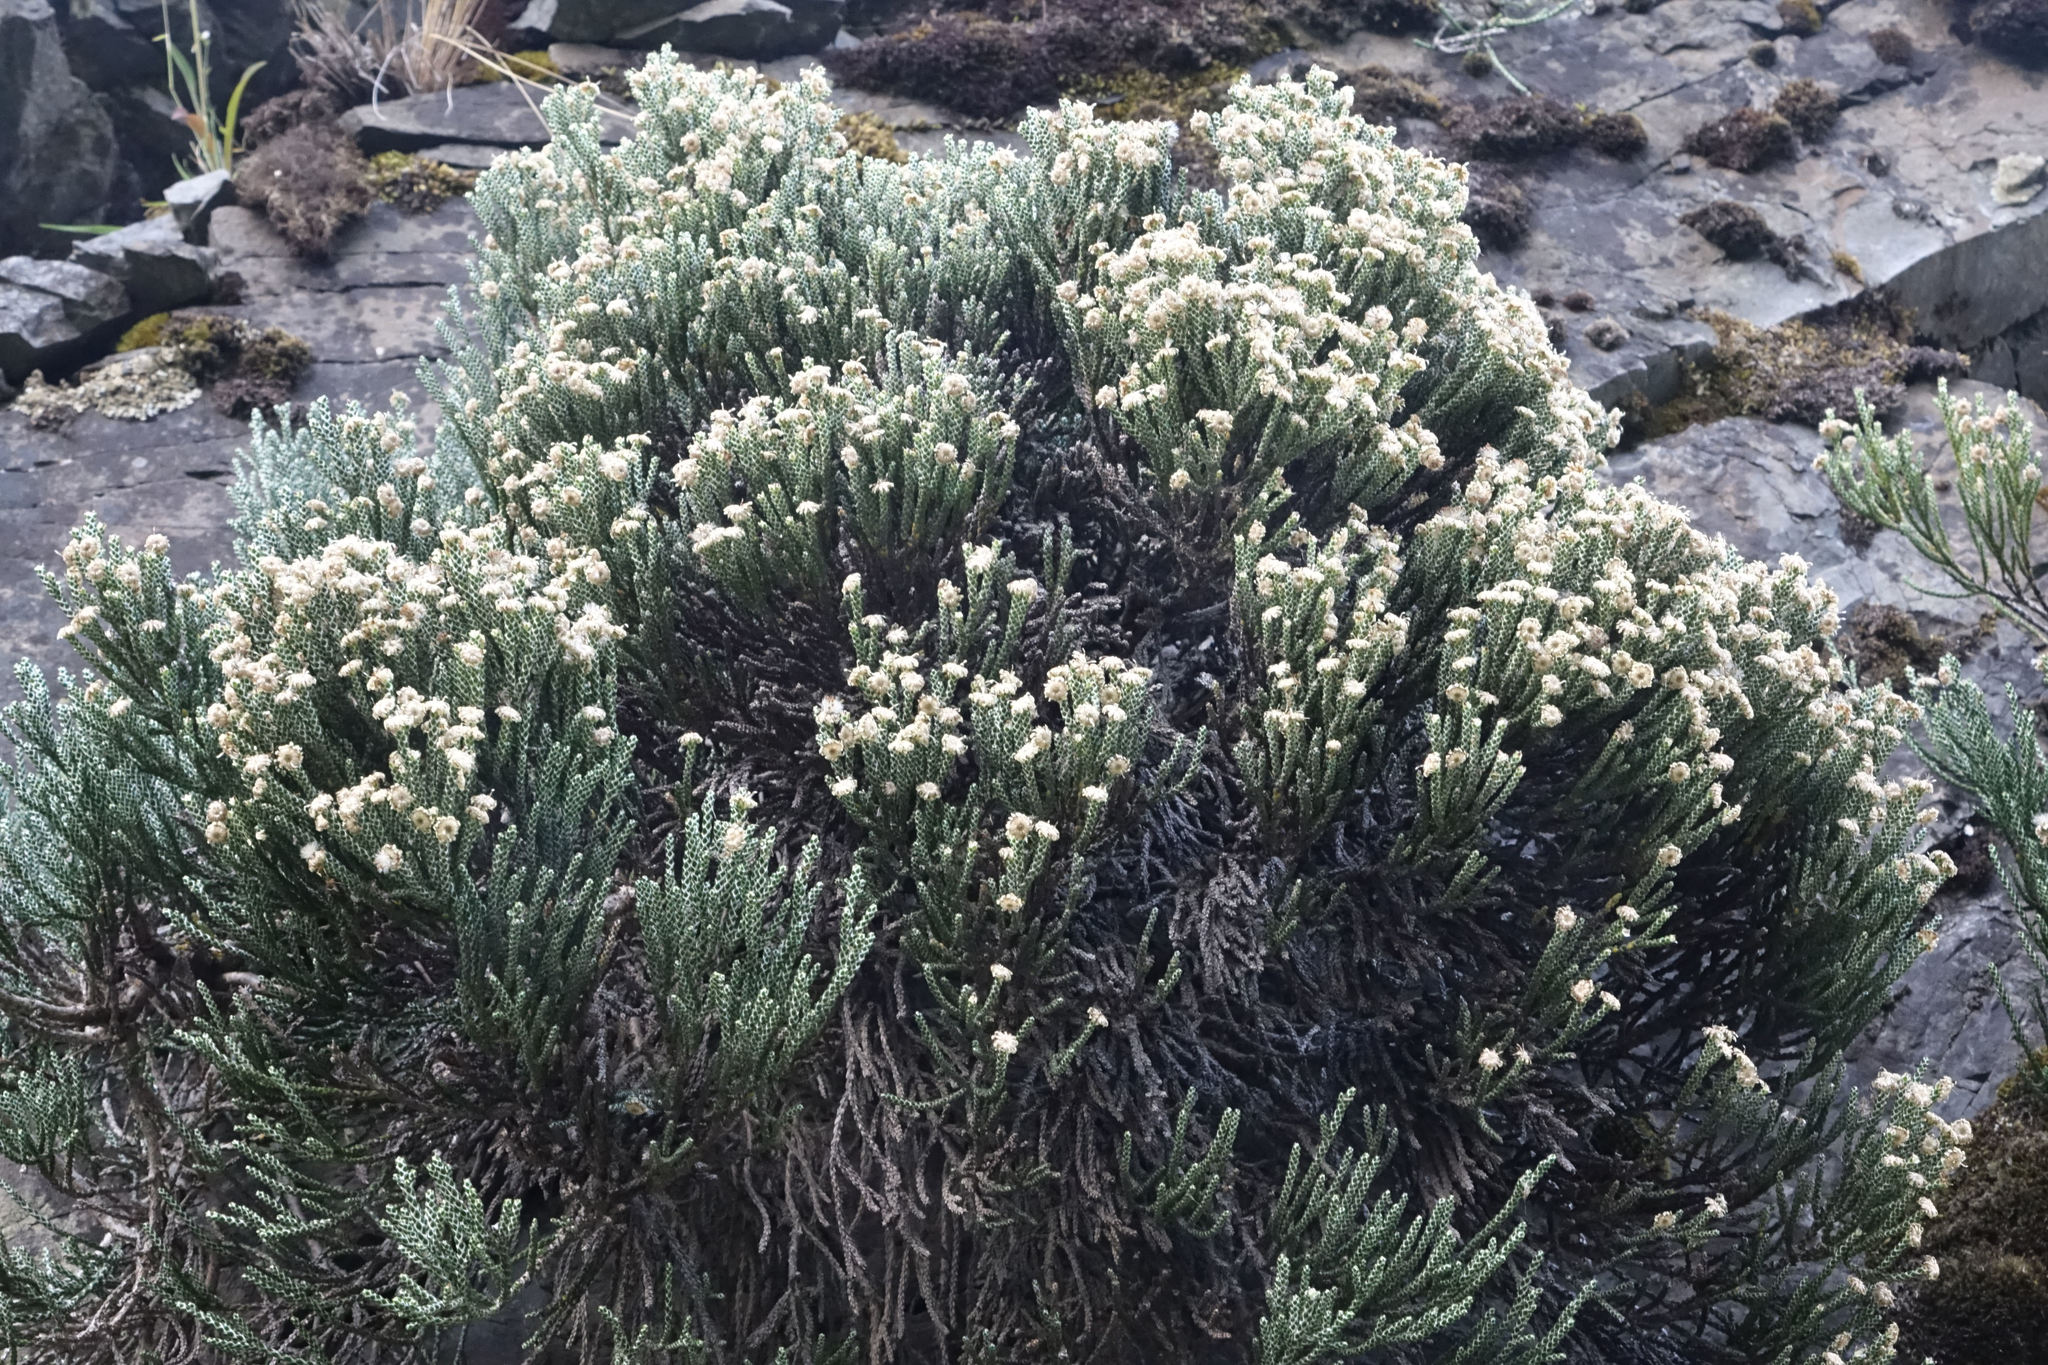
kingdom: Plantae
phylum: Tracheophyta
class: Magnoliopsida
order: Asterales
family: Asteraceae
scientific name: Asteraceae
